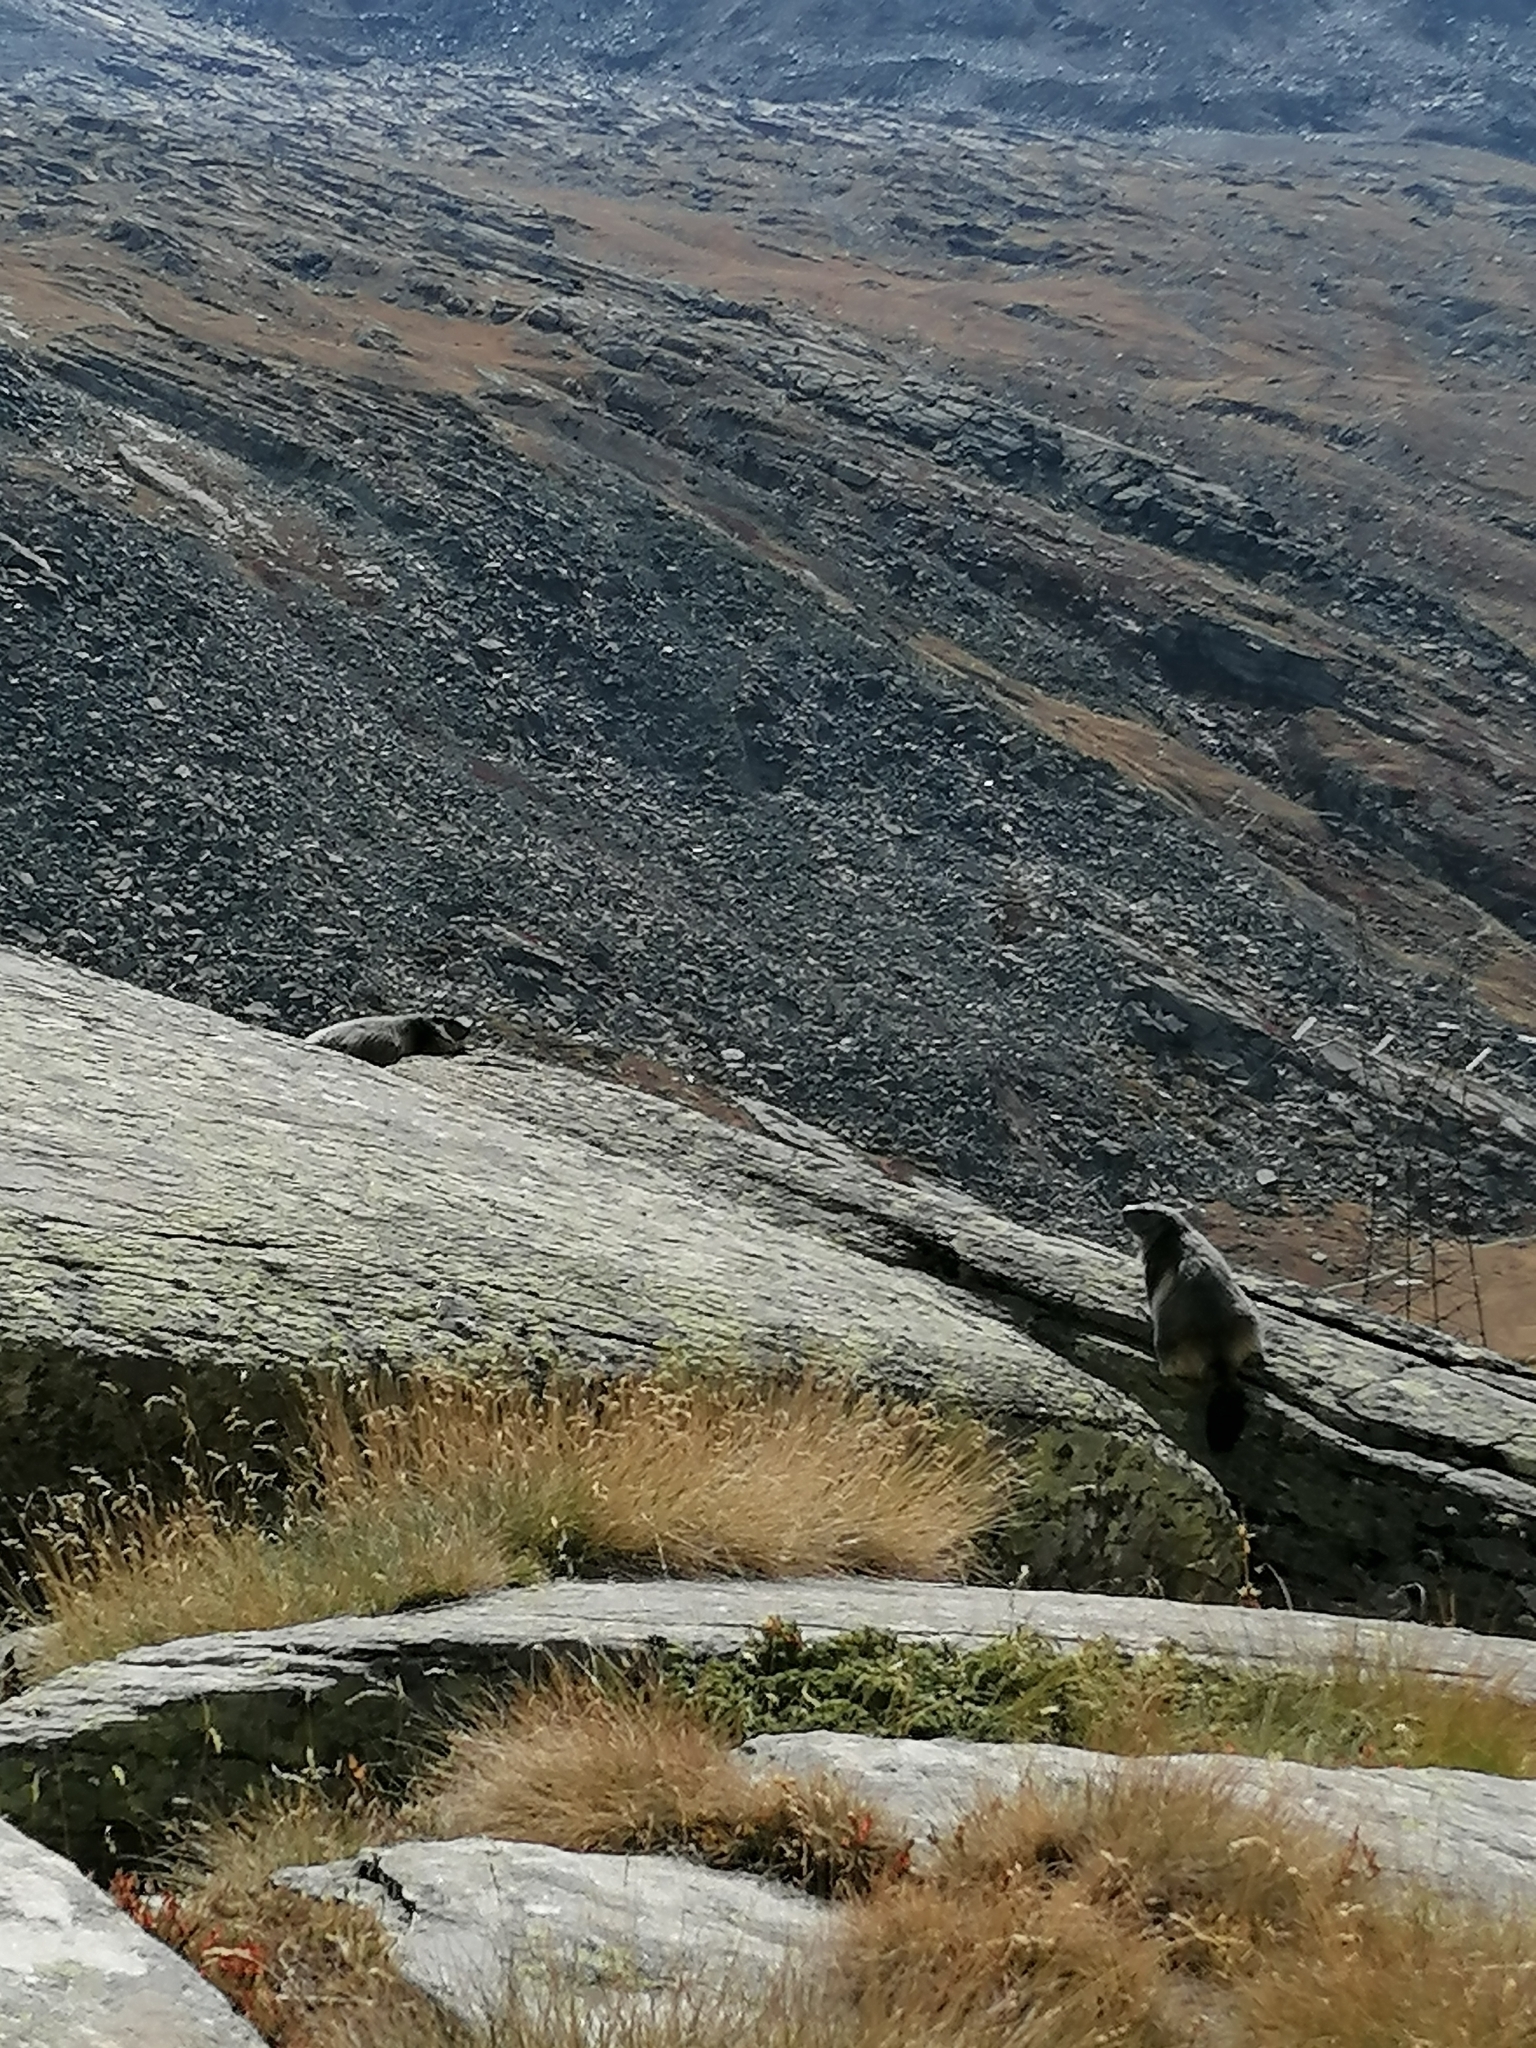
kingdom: Animalia
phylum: Chordata
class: Mammalia
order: Rodentia
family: Sciuridae
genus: Marmota
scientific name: Marmota marmota
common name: Alpine marmot
